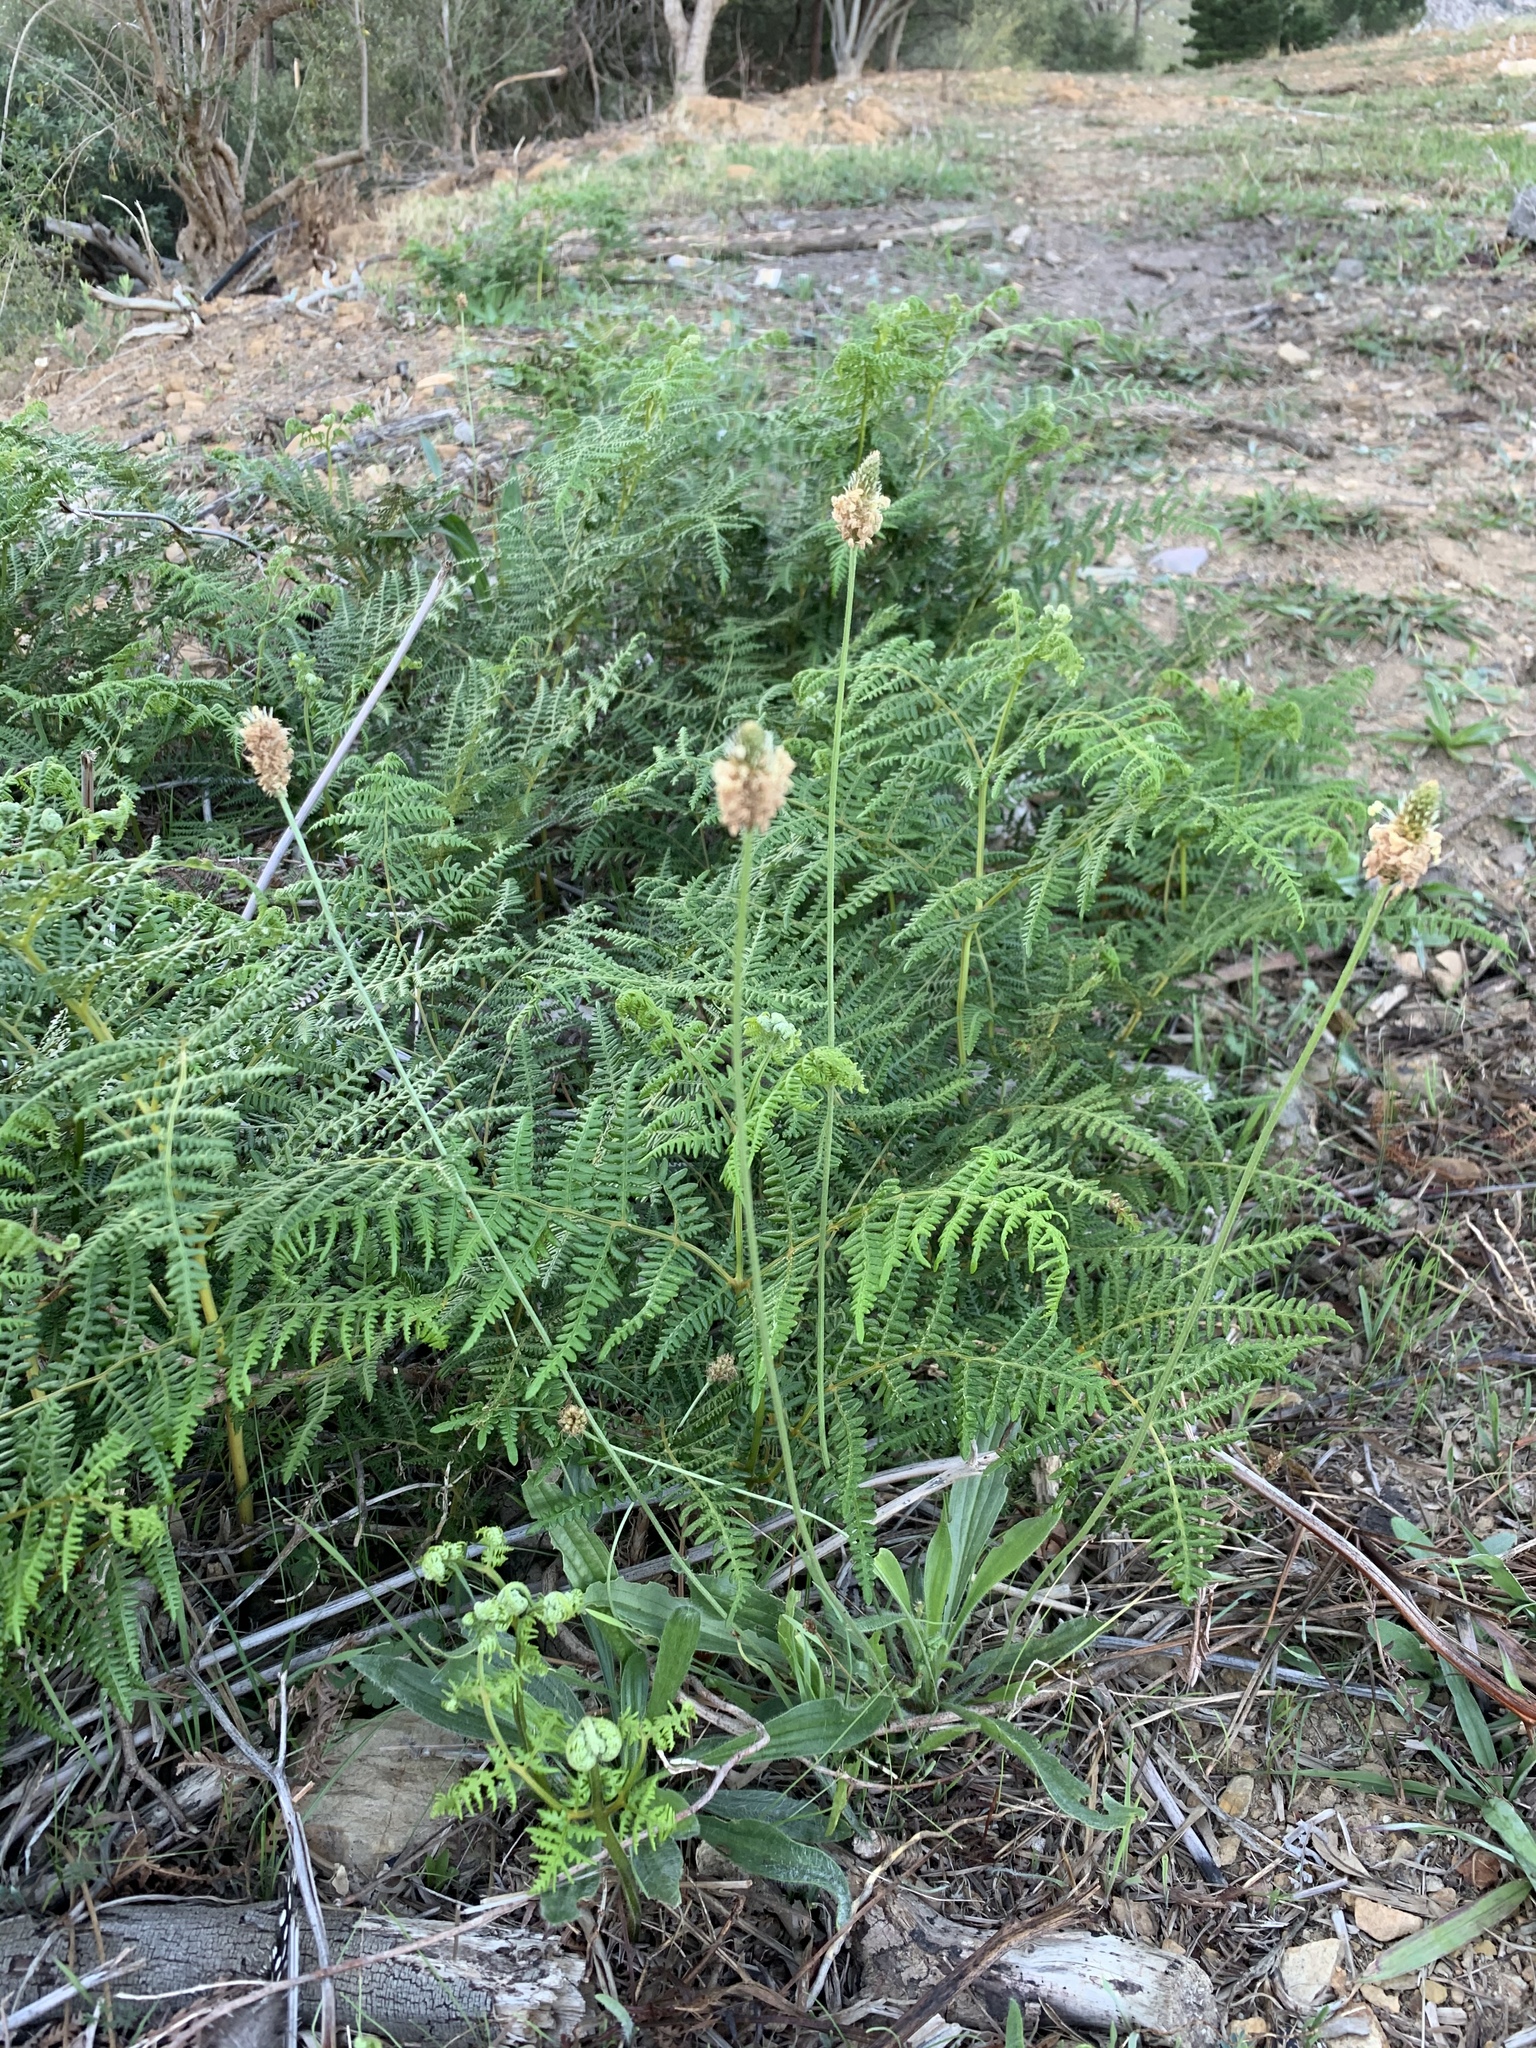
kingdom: Plantae
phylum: Tracheophyta
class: Magnoliopsida
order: Lamiales
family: Plantaginaceae
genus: Plantago
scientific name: Plantago lanceolata
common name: Ribwort plantain
